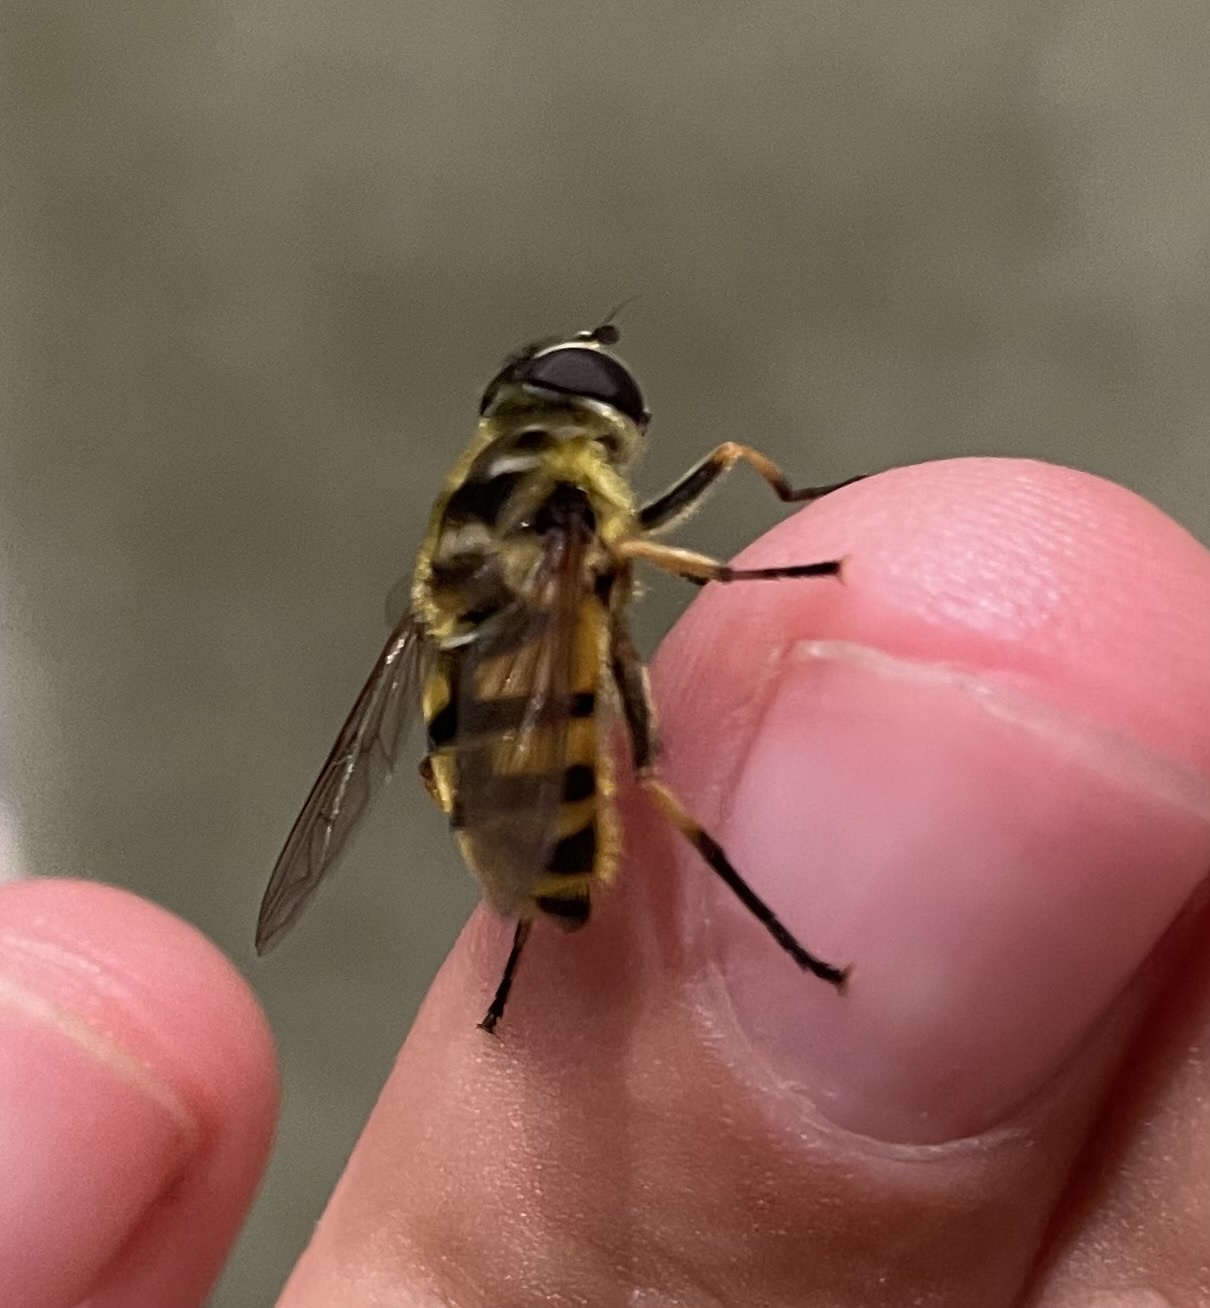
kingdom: Animalia
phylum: Arthropoda
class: Insecta
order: Diptera
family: Syrphidae
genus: Myathropa
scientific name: Myathropa florea
